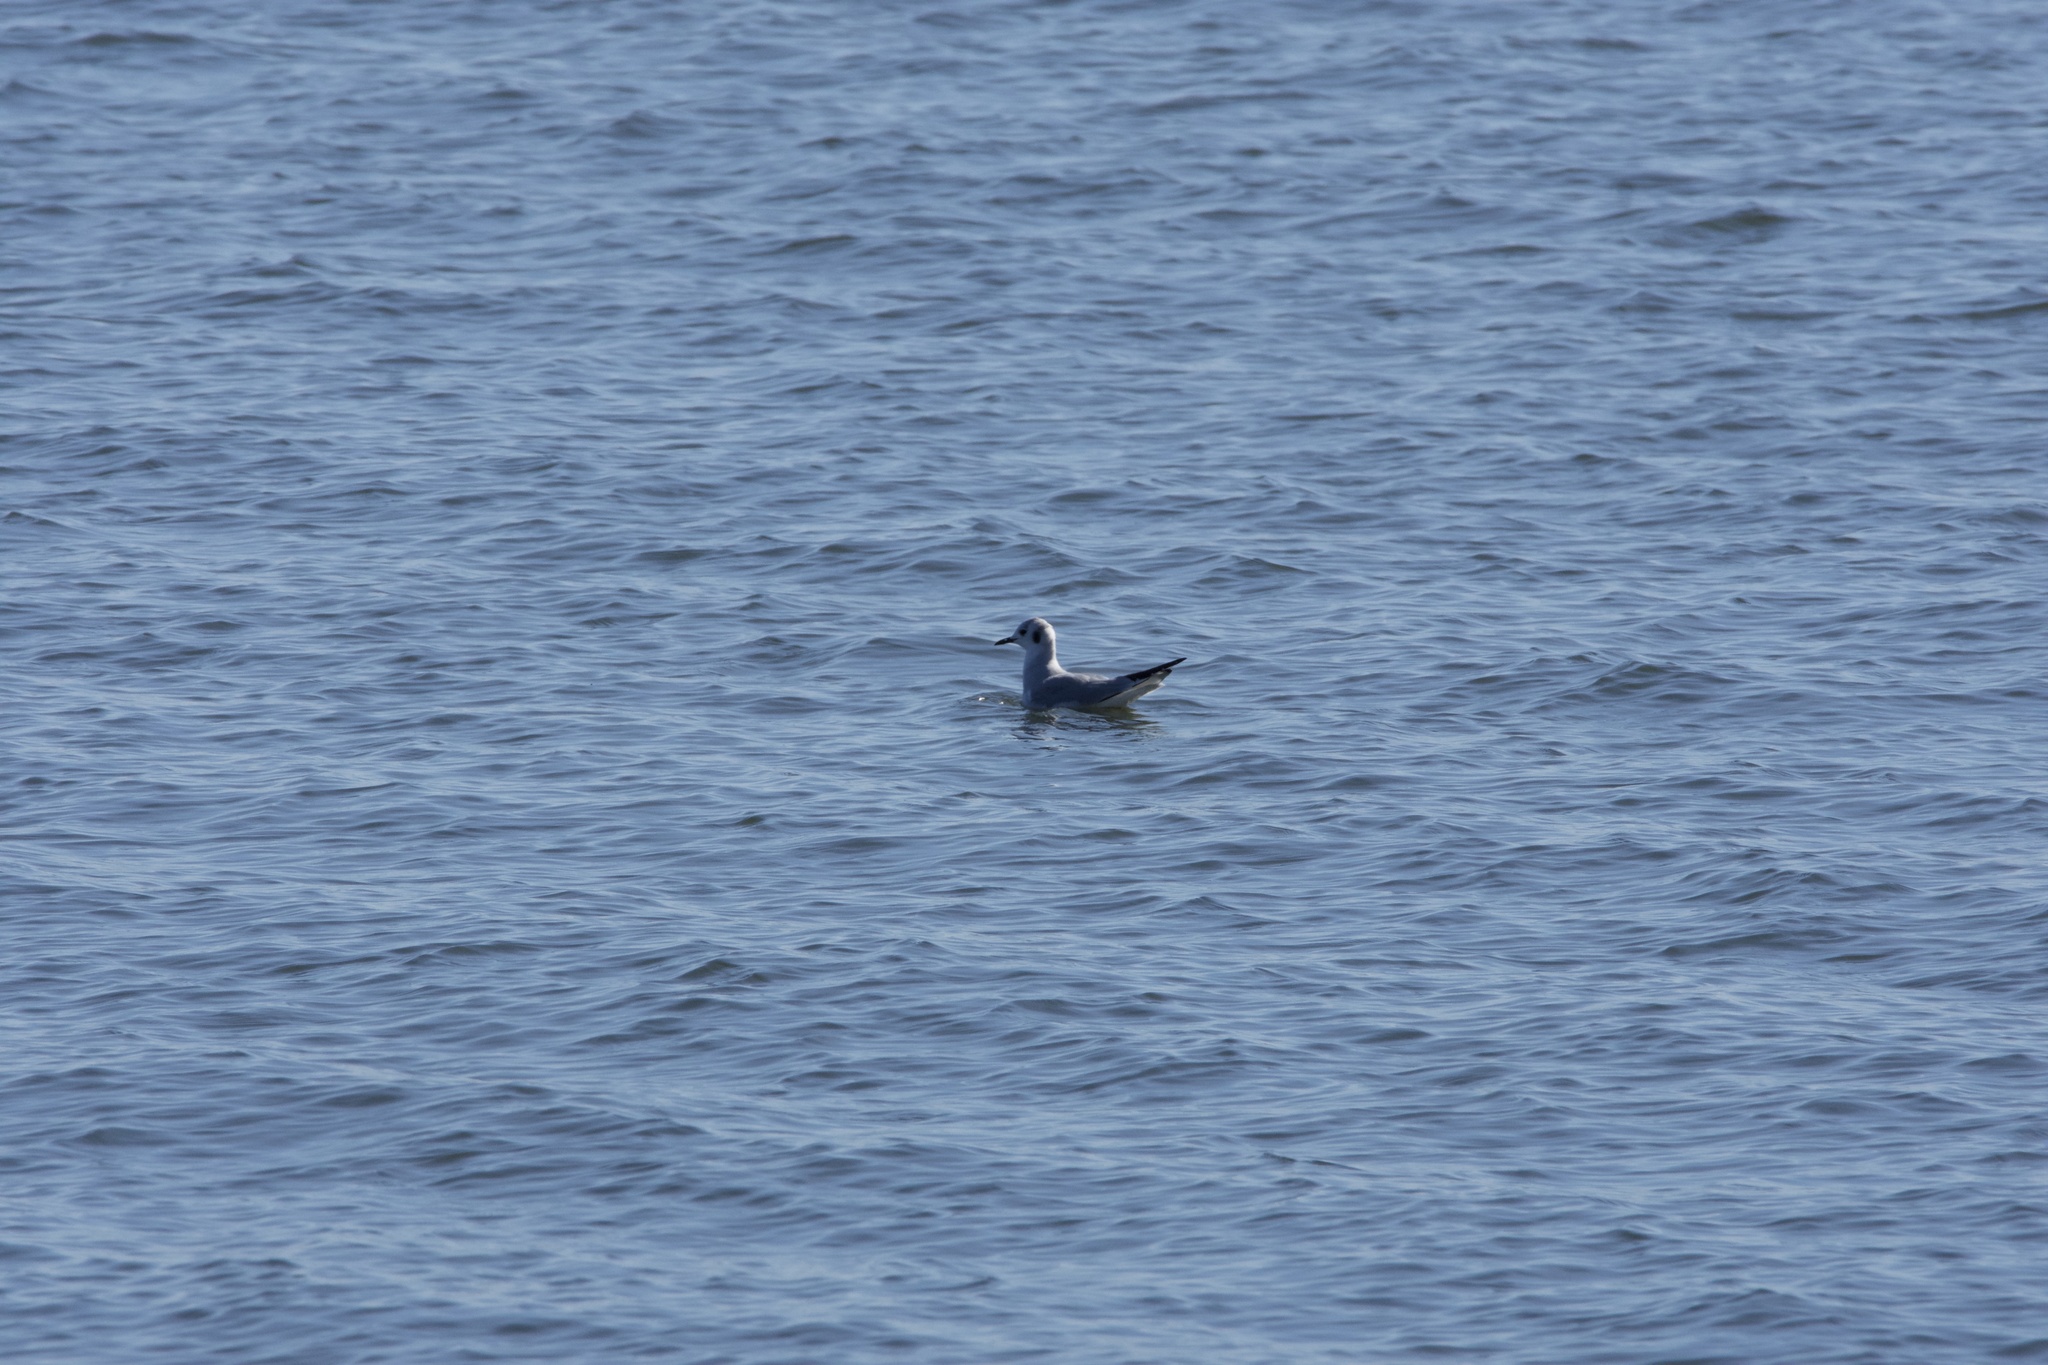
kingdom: Animalia
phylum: Chordata
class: Aves
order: Charadriiformes
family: Laridae
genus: Chroicocephalus
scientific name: Chroicocephalus philadelphia
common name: Bonaparte's gull
